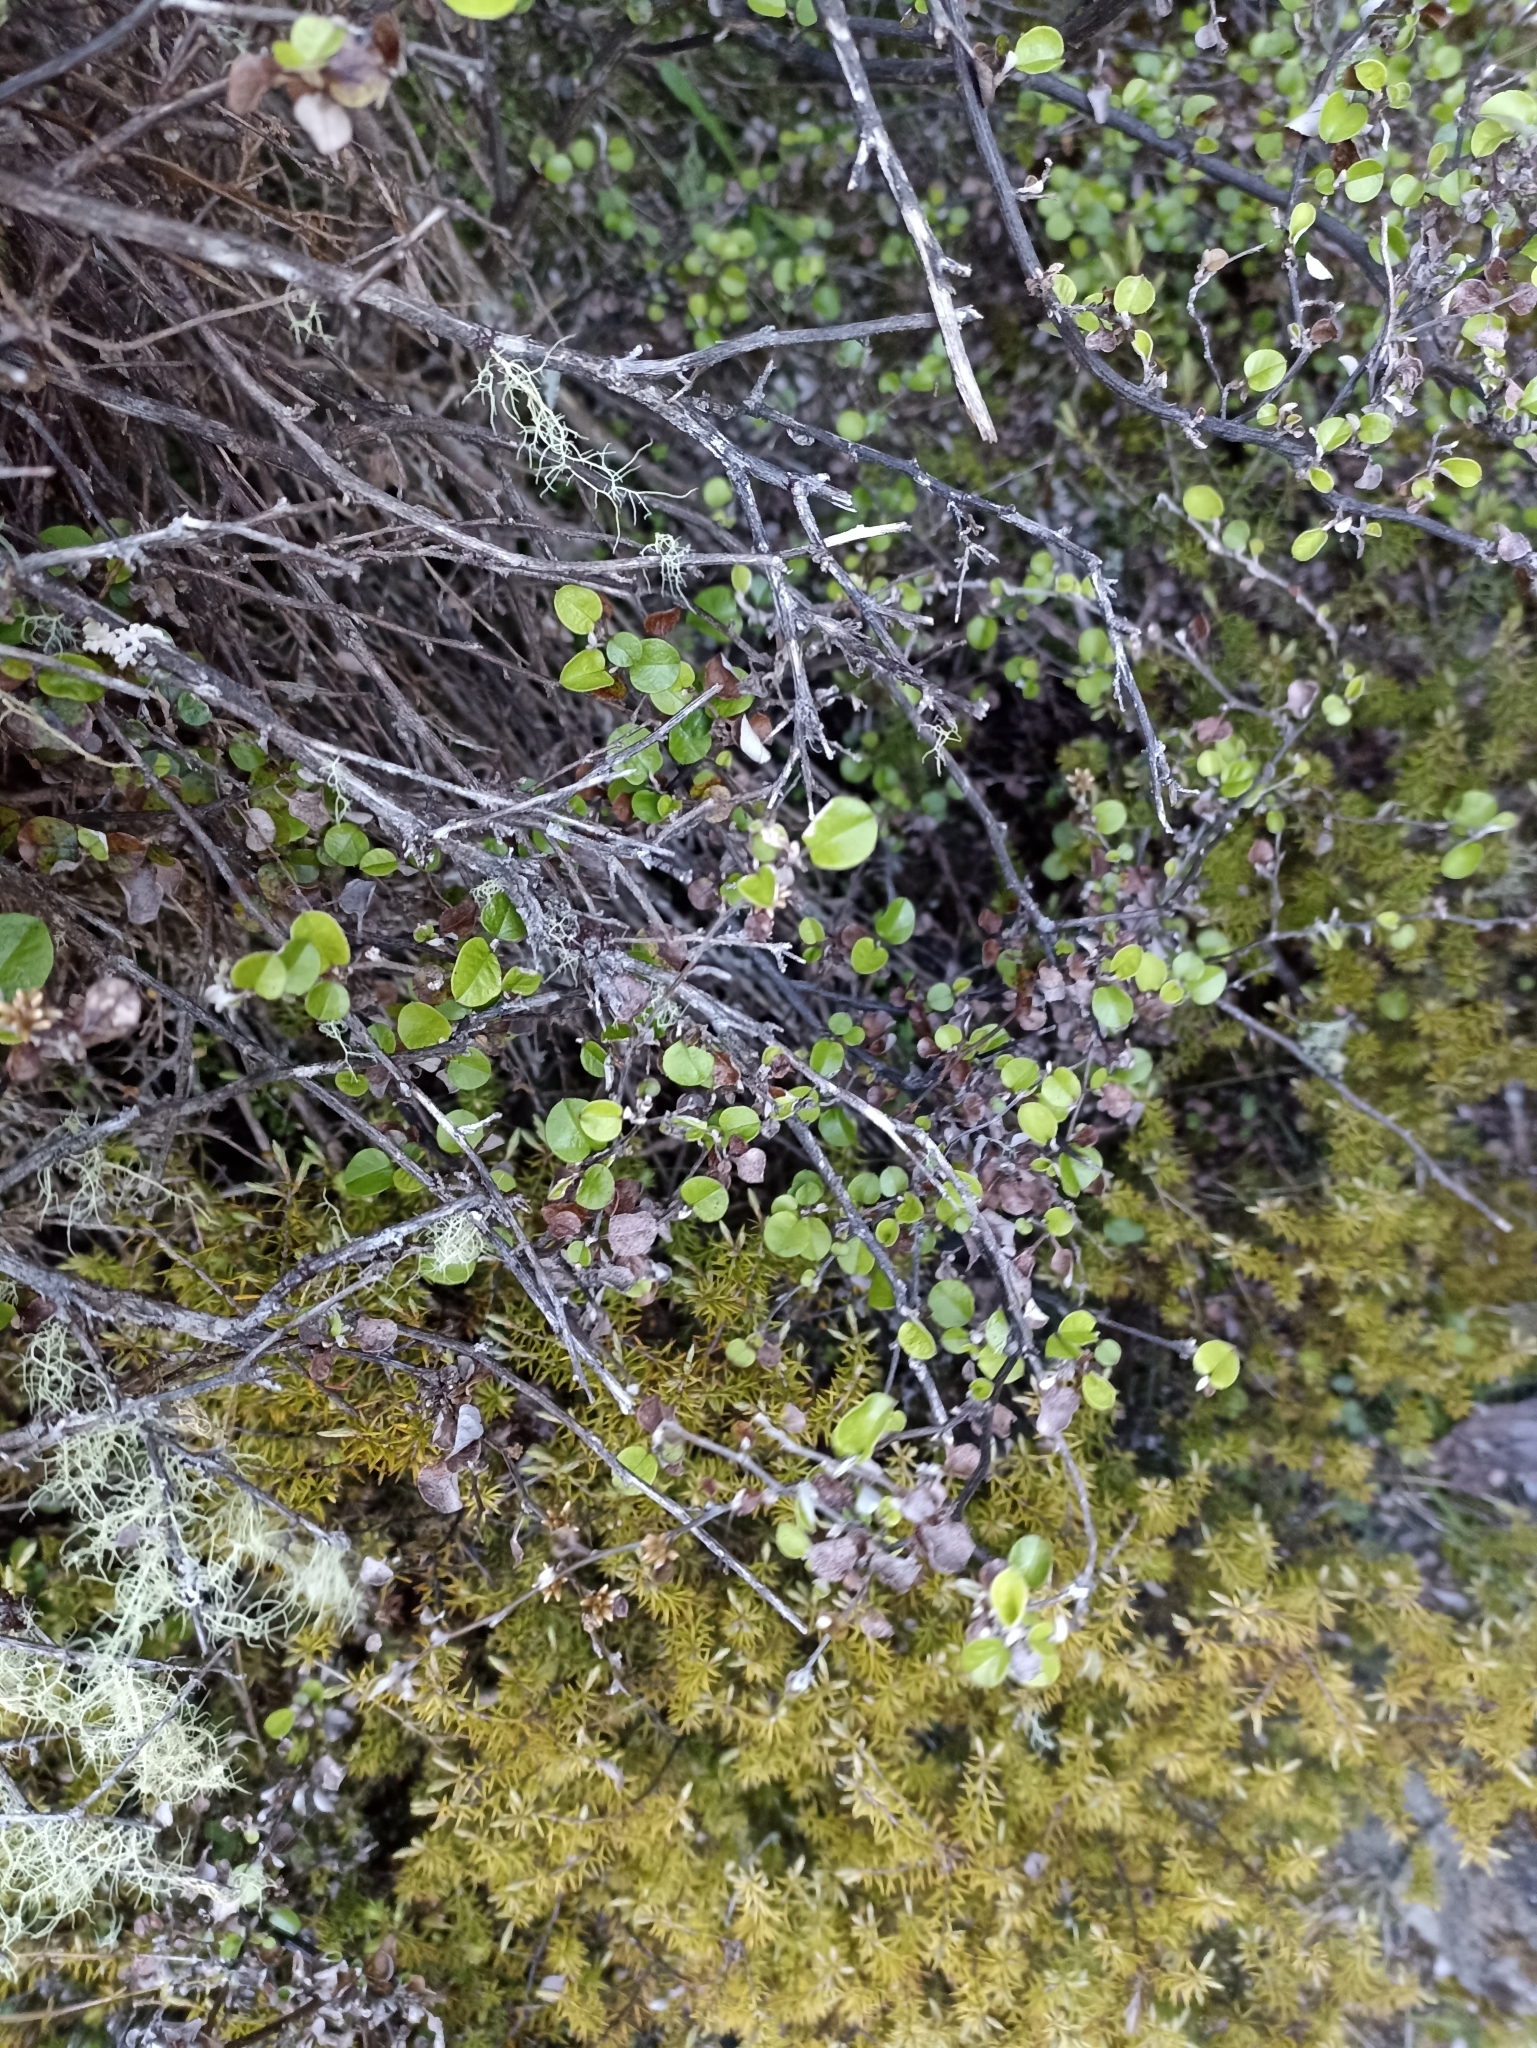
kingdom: Plantae
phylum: Tracheophyta
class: Magnoliopsida
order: Asterales
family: Asteraceae
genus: Ozothamnus
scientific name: Ozothamnus glomeratus
